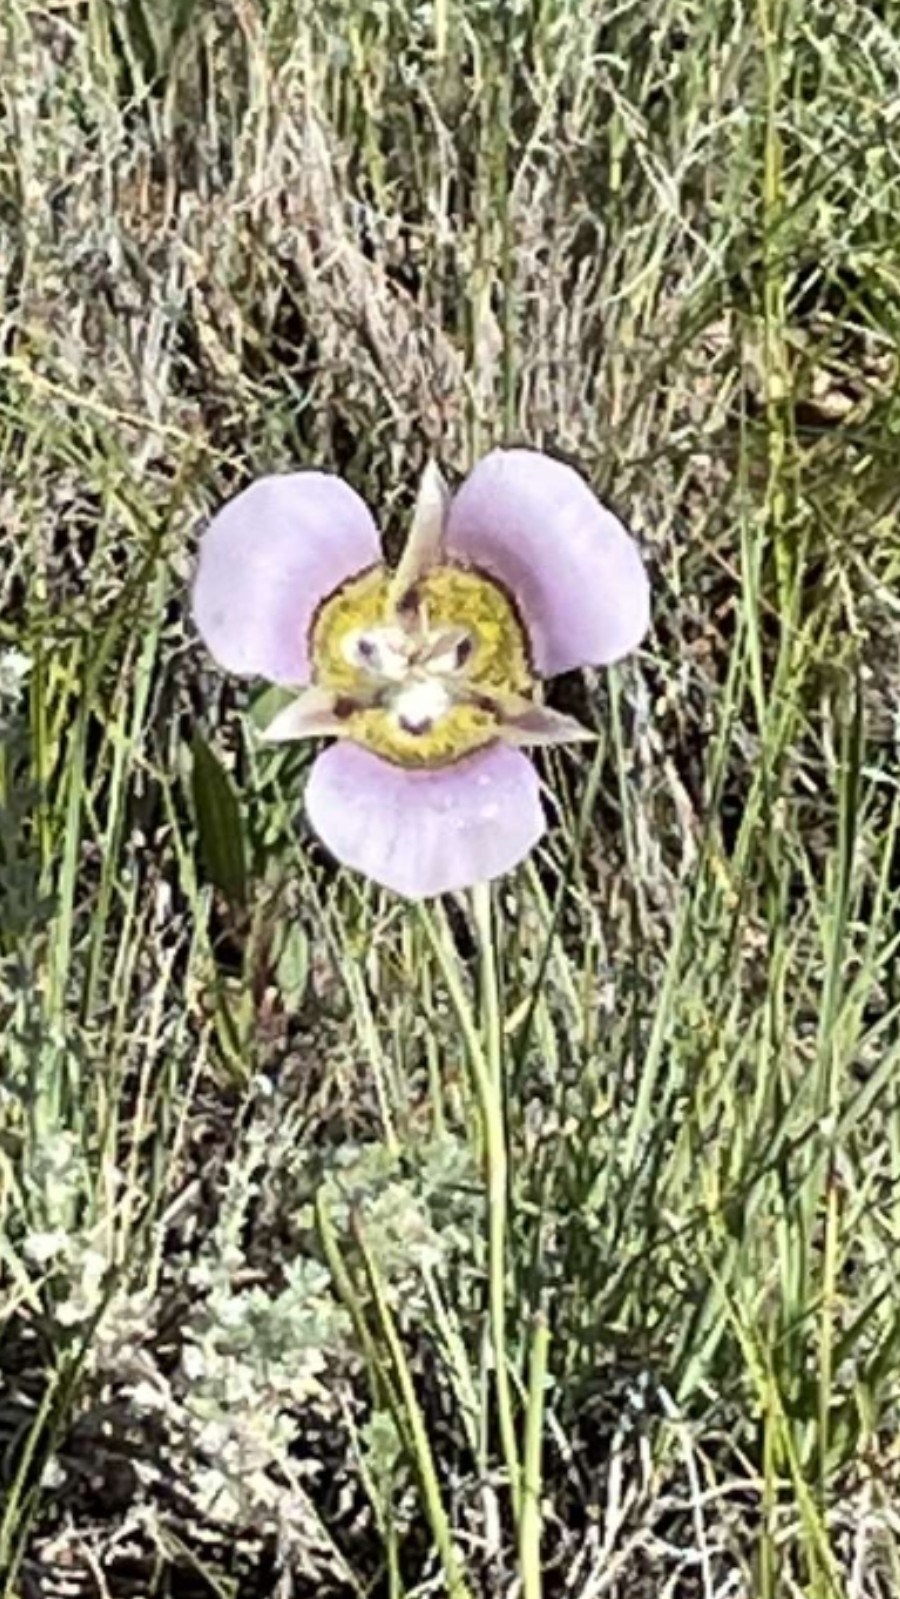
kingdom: Plantae
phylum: Tracheophyta
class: Liliopsida
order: Liliales
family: Liliaceae
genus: Calochortus
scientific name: Calochortus gunnisonii
